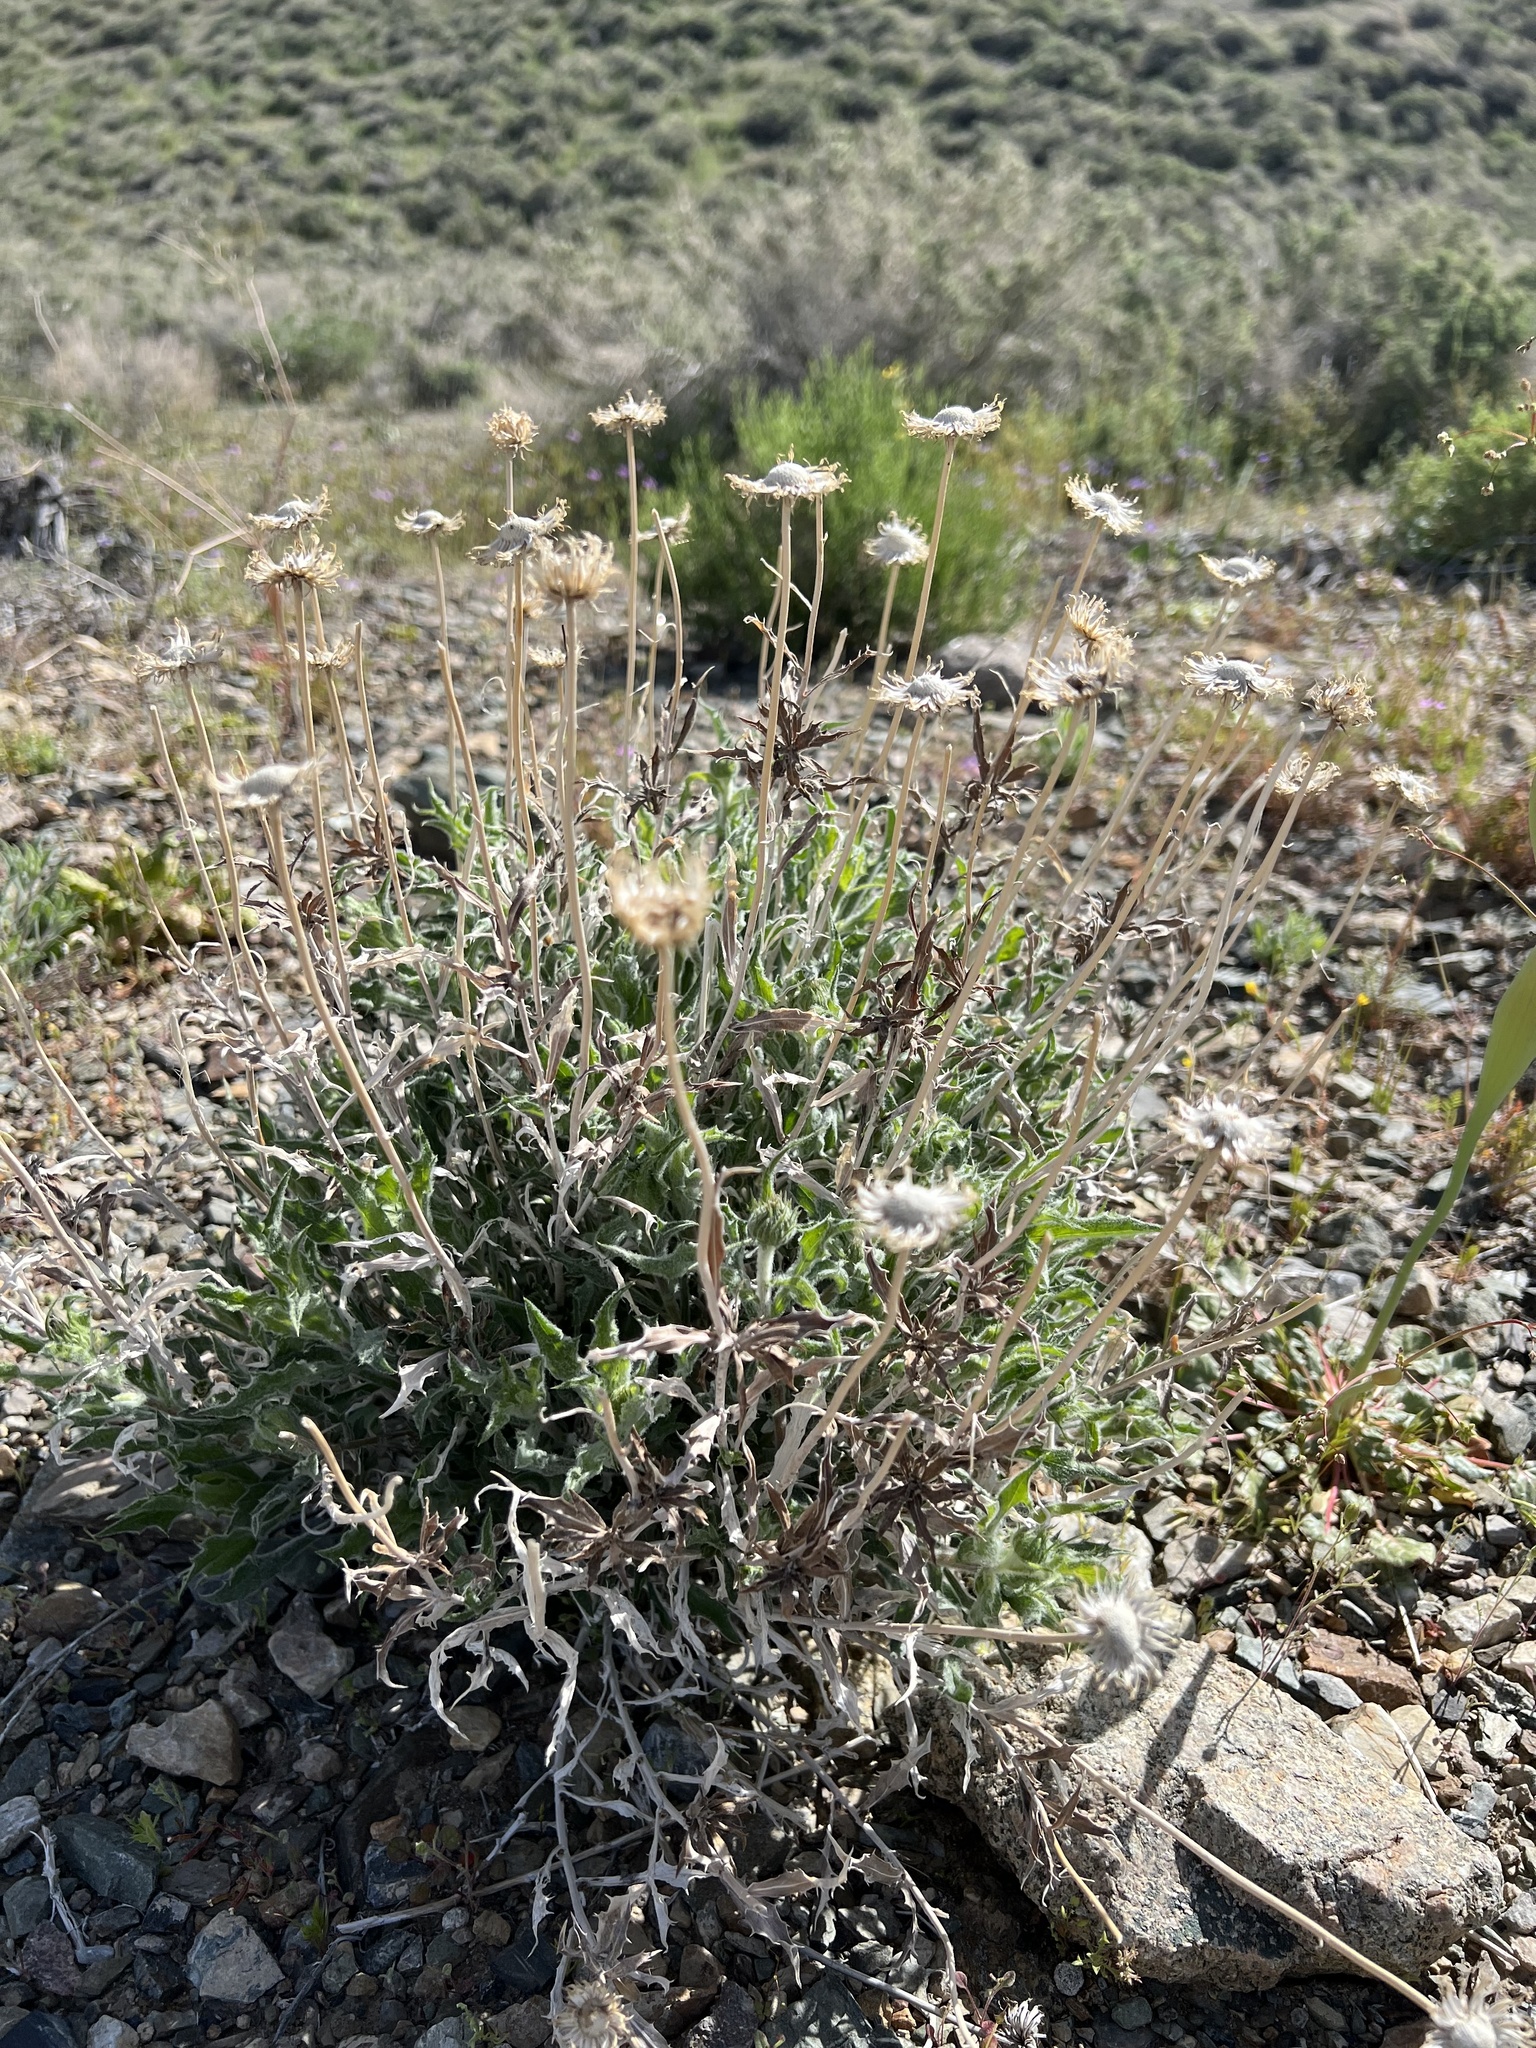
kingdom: Plantae
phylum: Tracheophyta
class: Magnoliopsida
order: Asterales
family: Asteraceae
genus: Xylorhiza
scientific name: Xylorhiza tortifolia
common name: Hurt-leaf woody-aster
